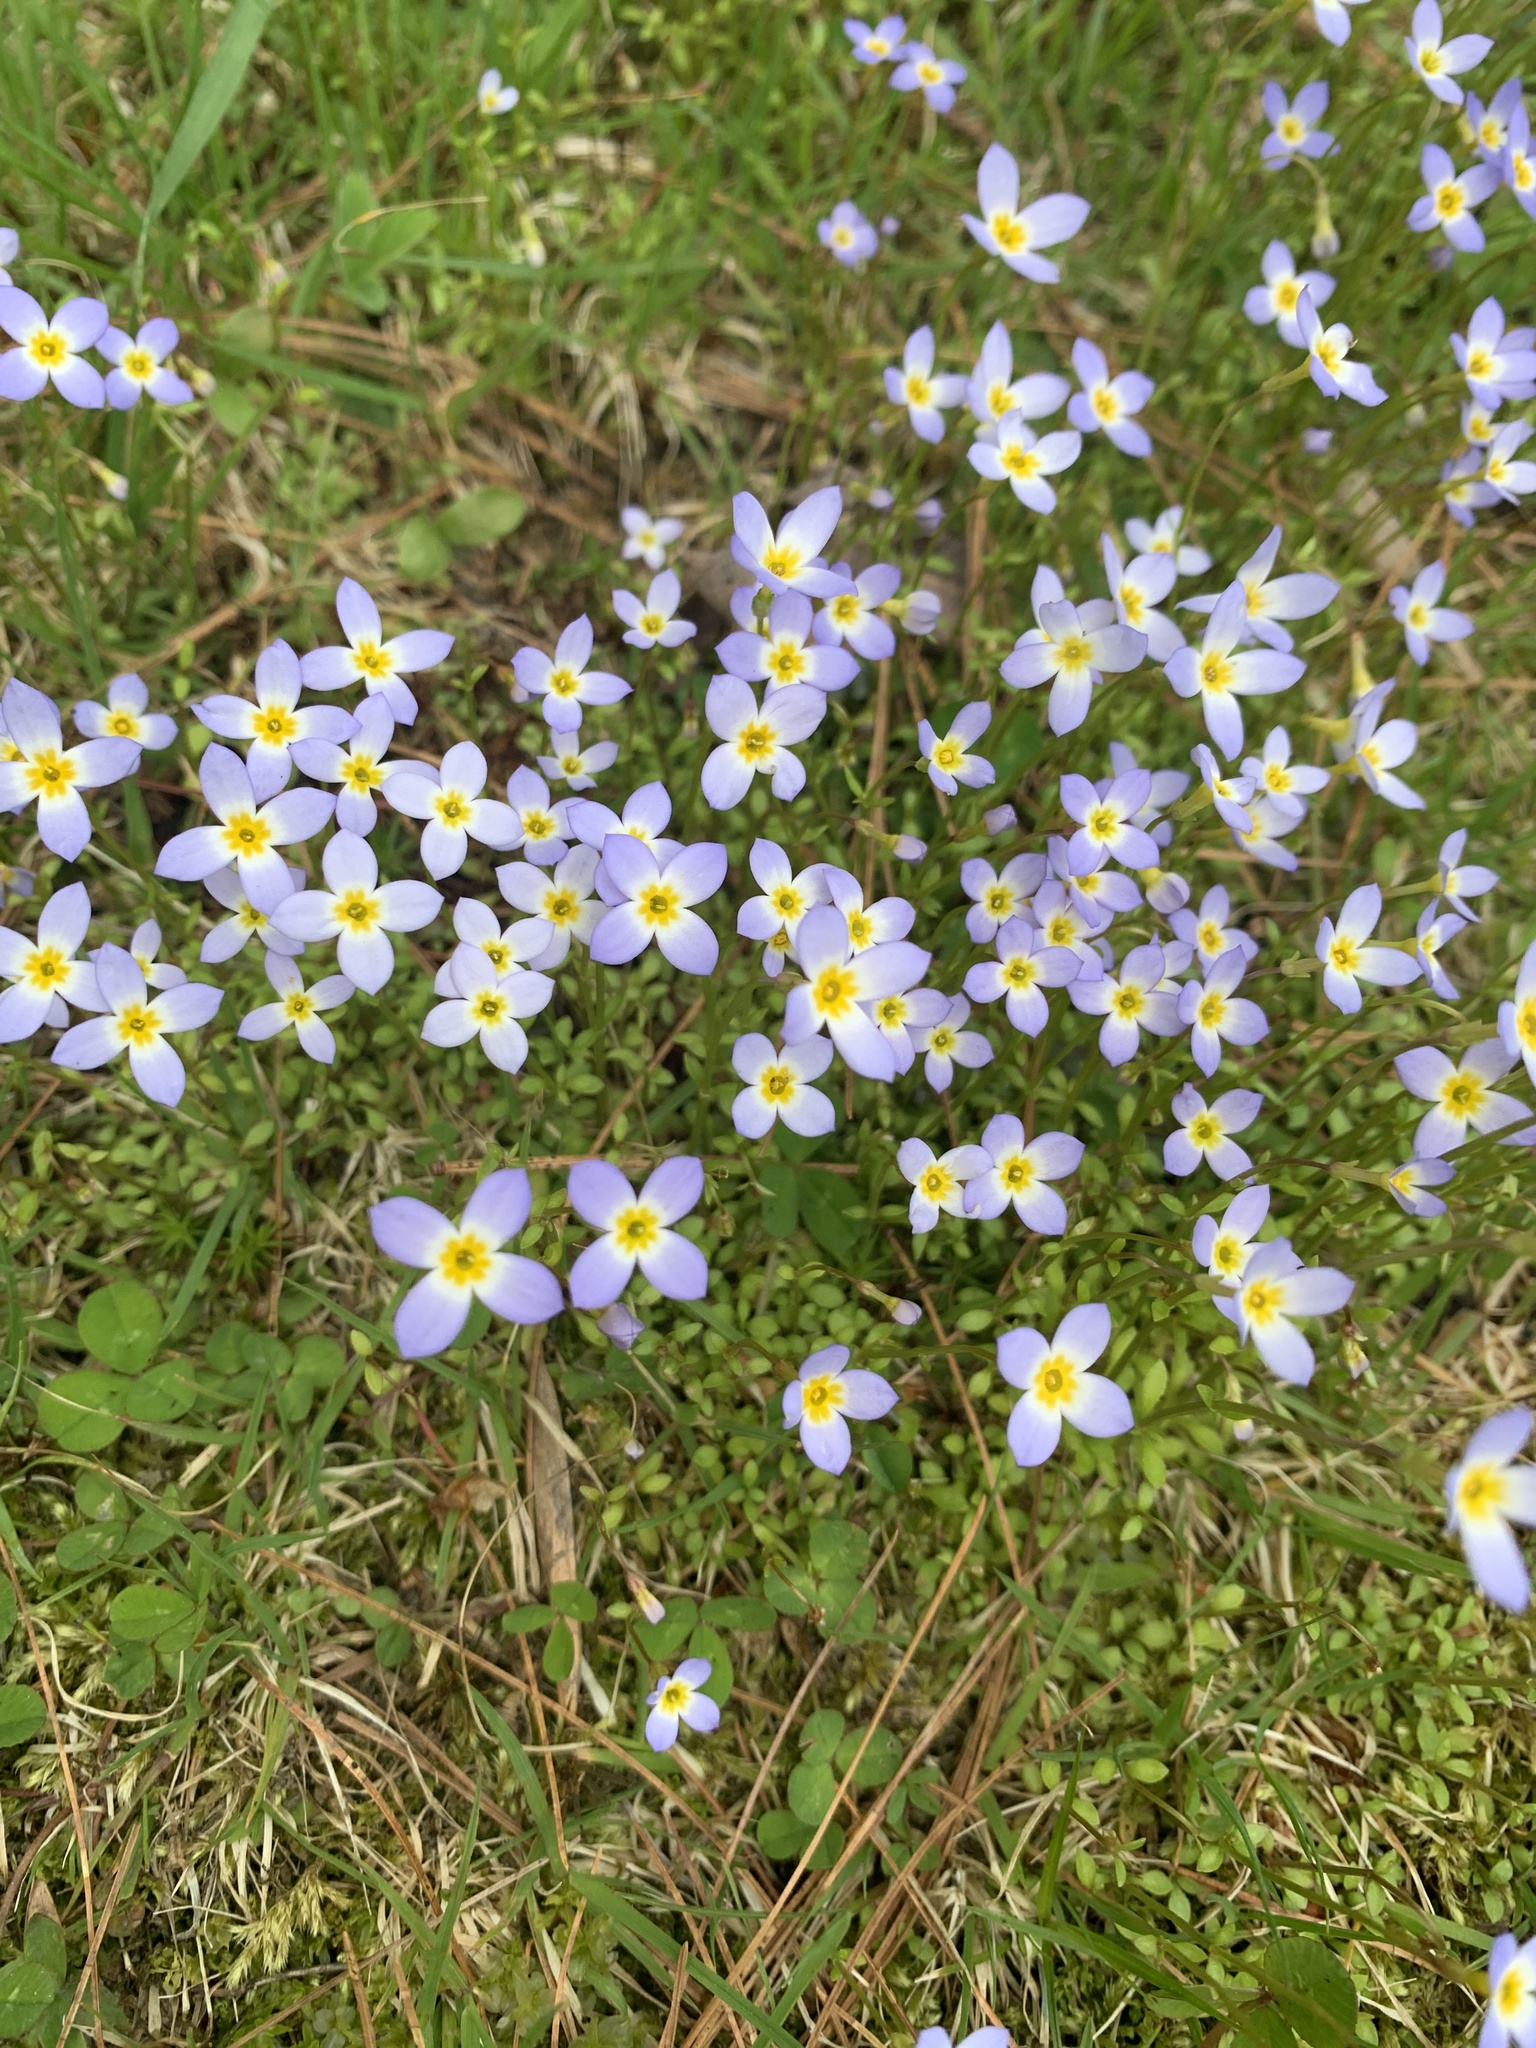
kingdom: Plantae
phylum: Tracheophyta
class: Magnoliopsida
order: Gentianales
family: Rubiaceae
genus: Houstonia
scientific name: Houstonia caerulea
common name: Bluets
